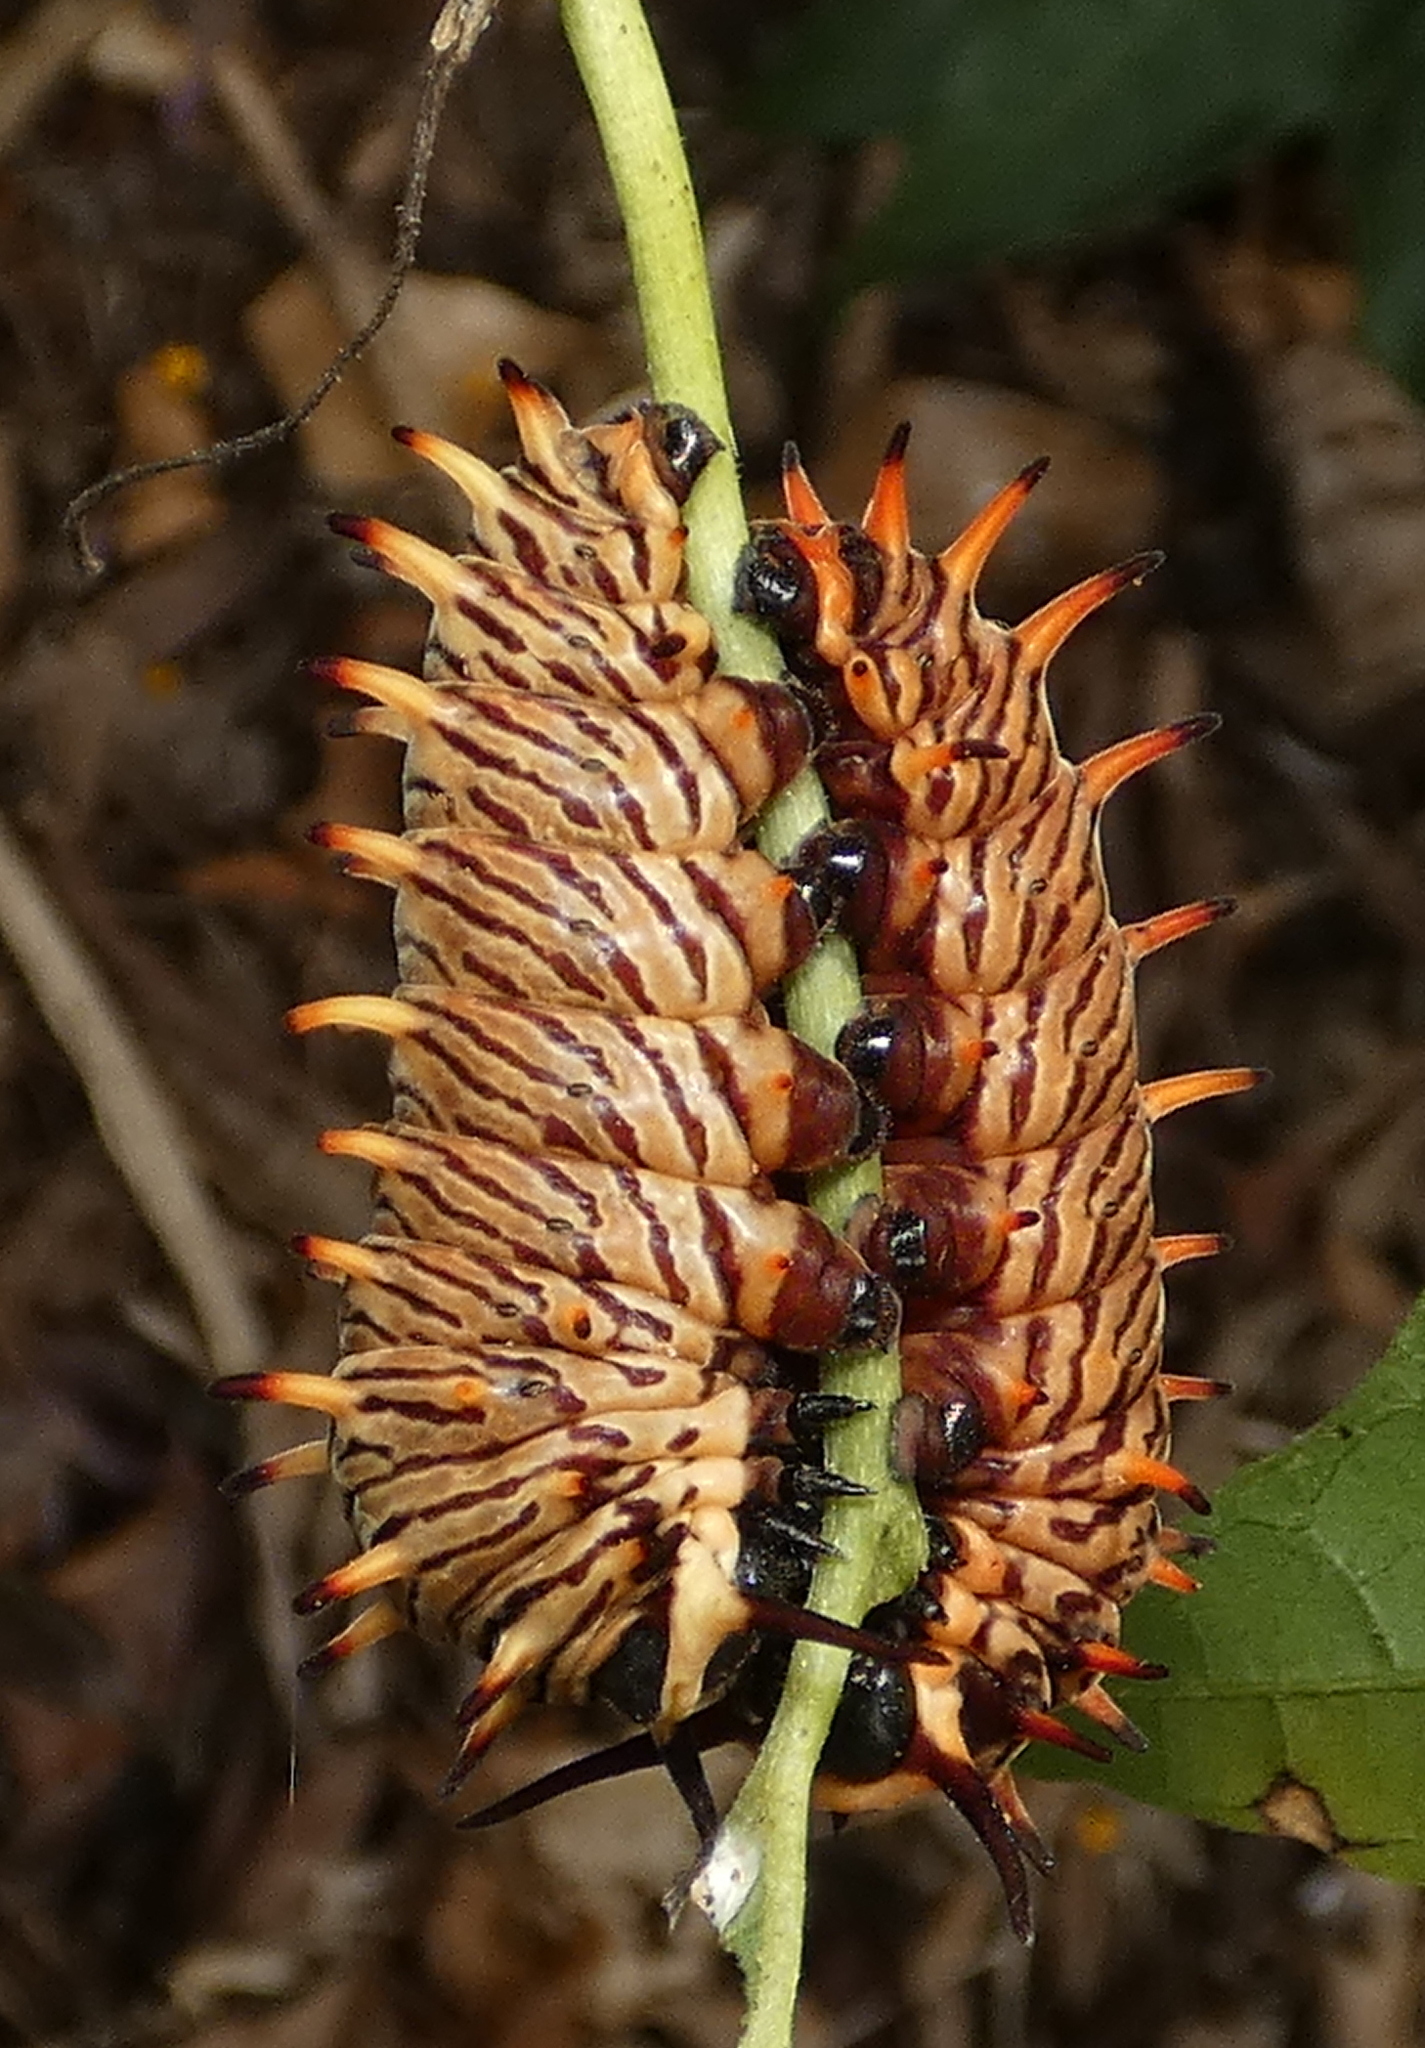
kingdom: Animalia
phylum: Arthropoda
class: Insecta
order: Lepidoptera
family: Papilionidae
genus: Battus
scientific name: Battus polydamas
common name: Polydamas swallowtail
